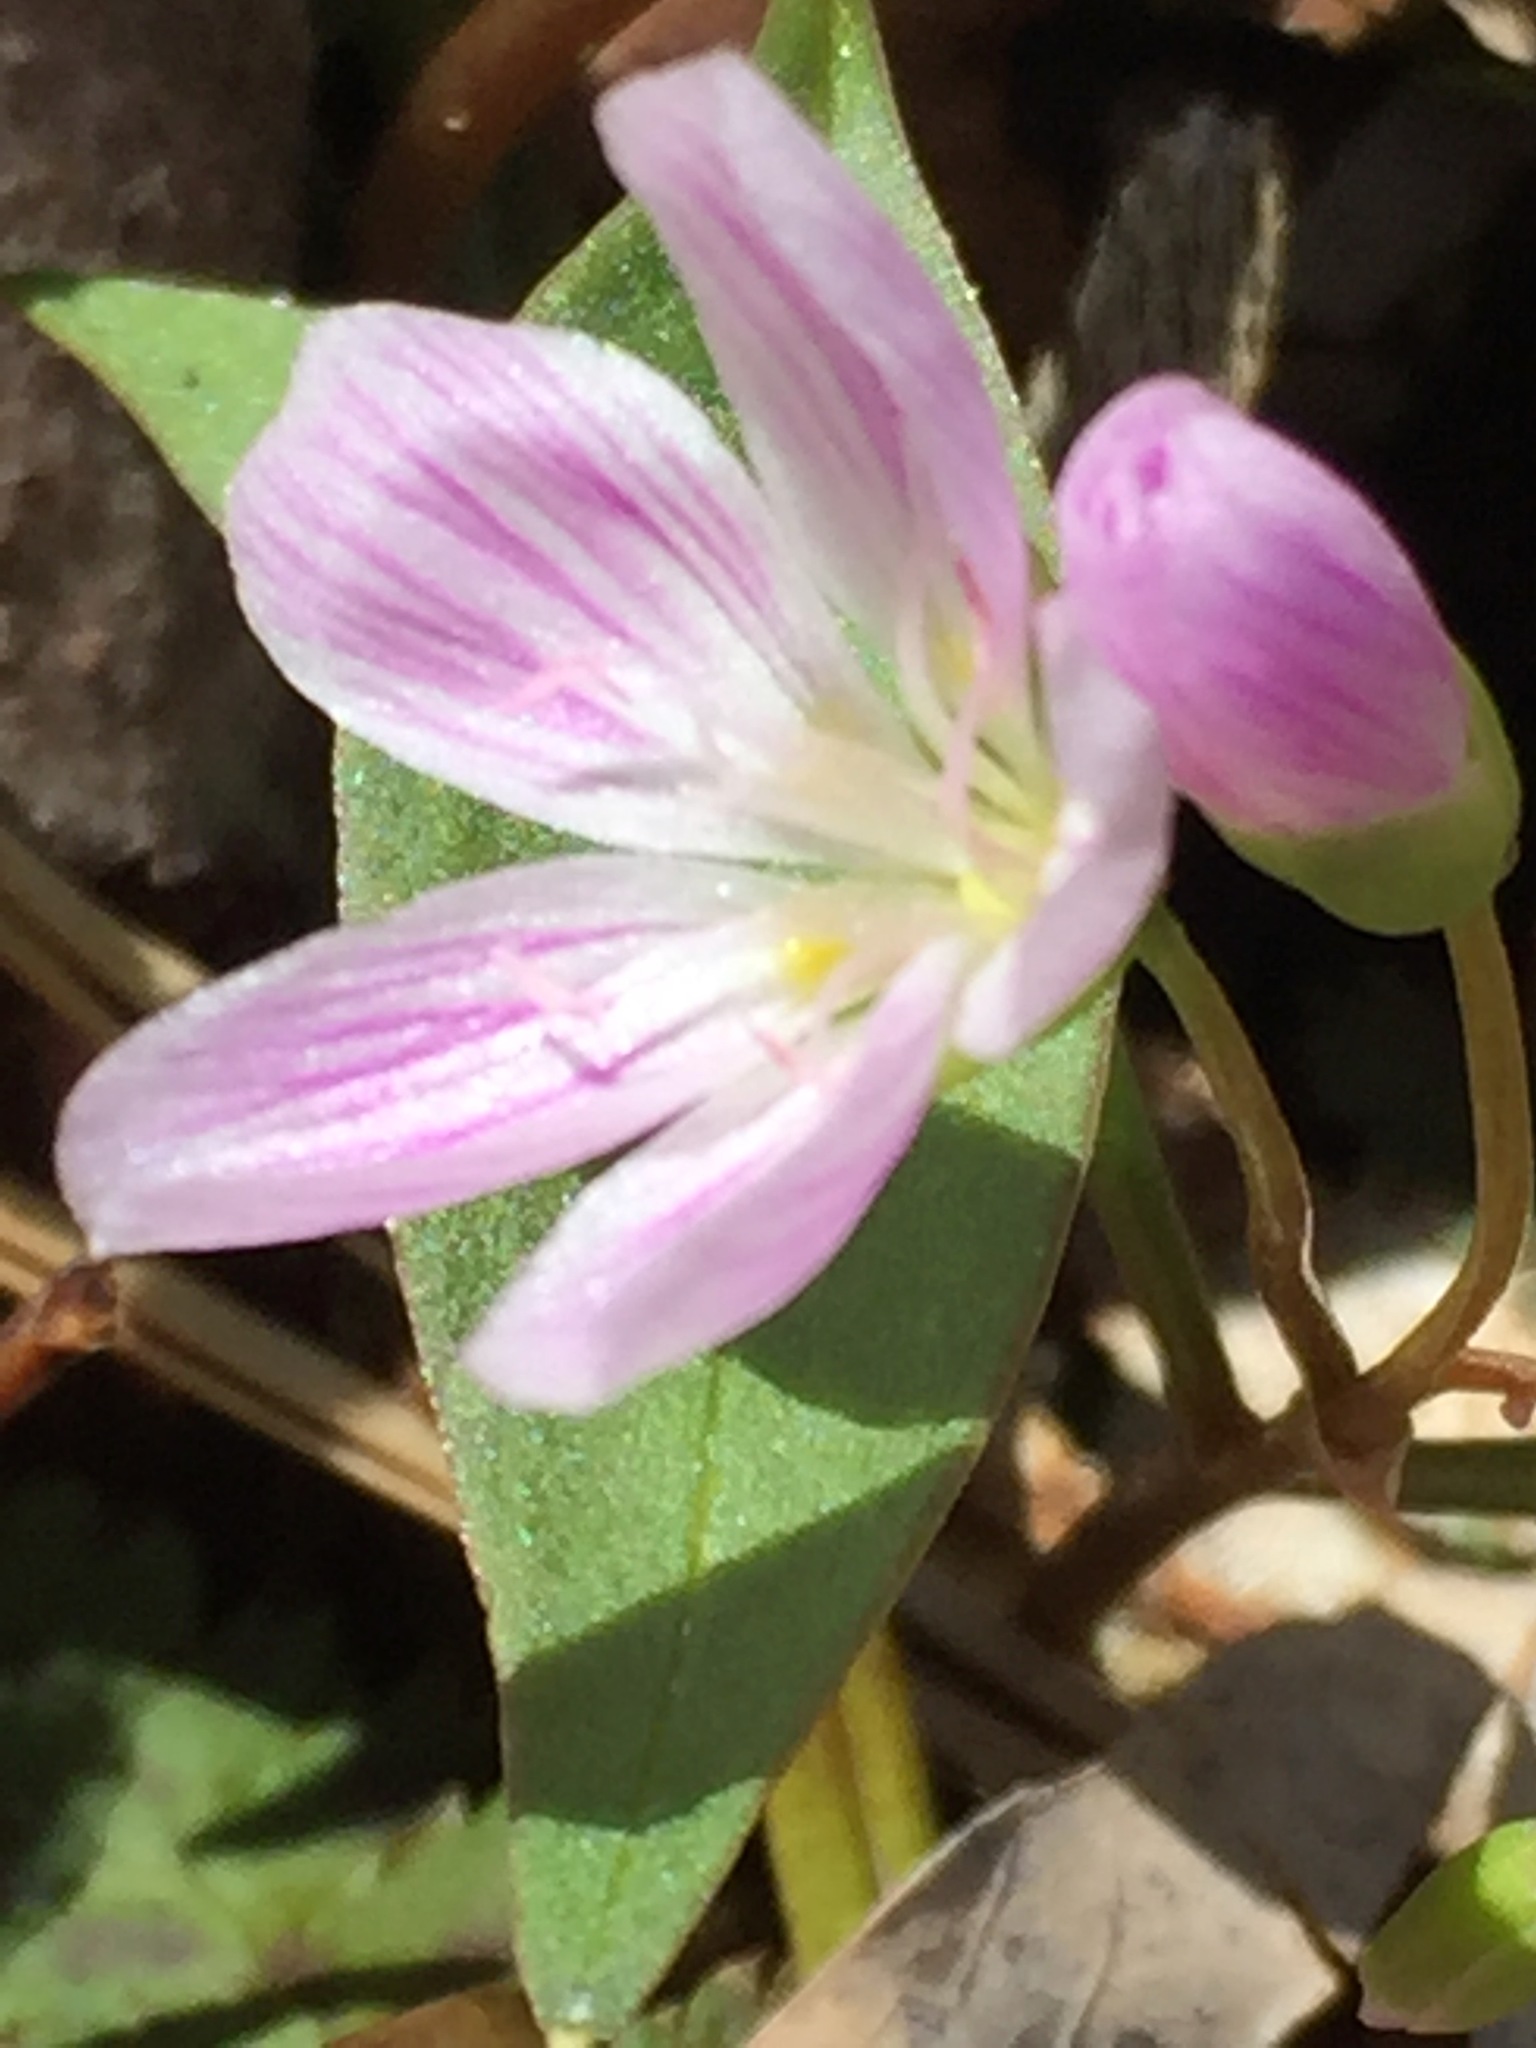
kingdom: Plantae
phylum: Tracheophyta
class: Magnoliopsida
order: Caryophyllales
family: Montiaceae
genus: Claytonia
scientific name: Claytonia caroliniana
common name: Carolina spring beauty
